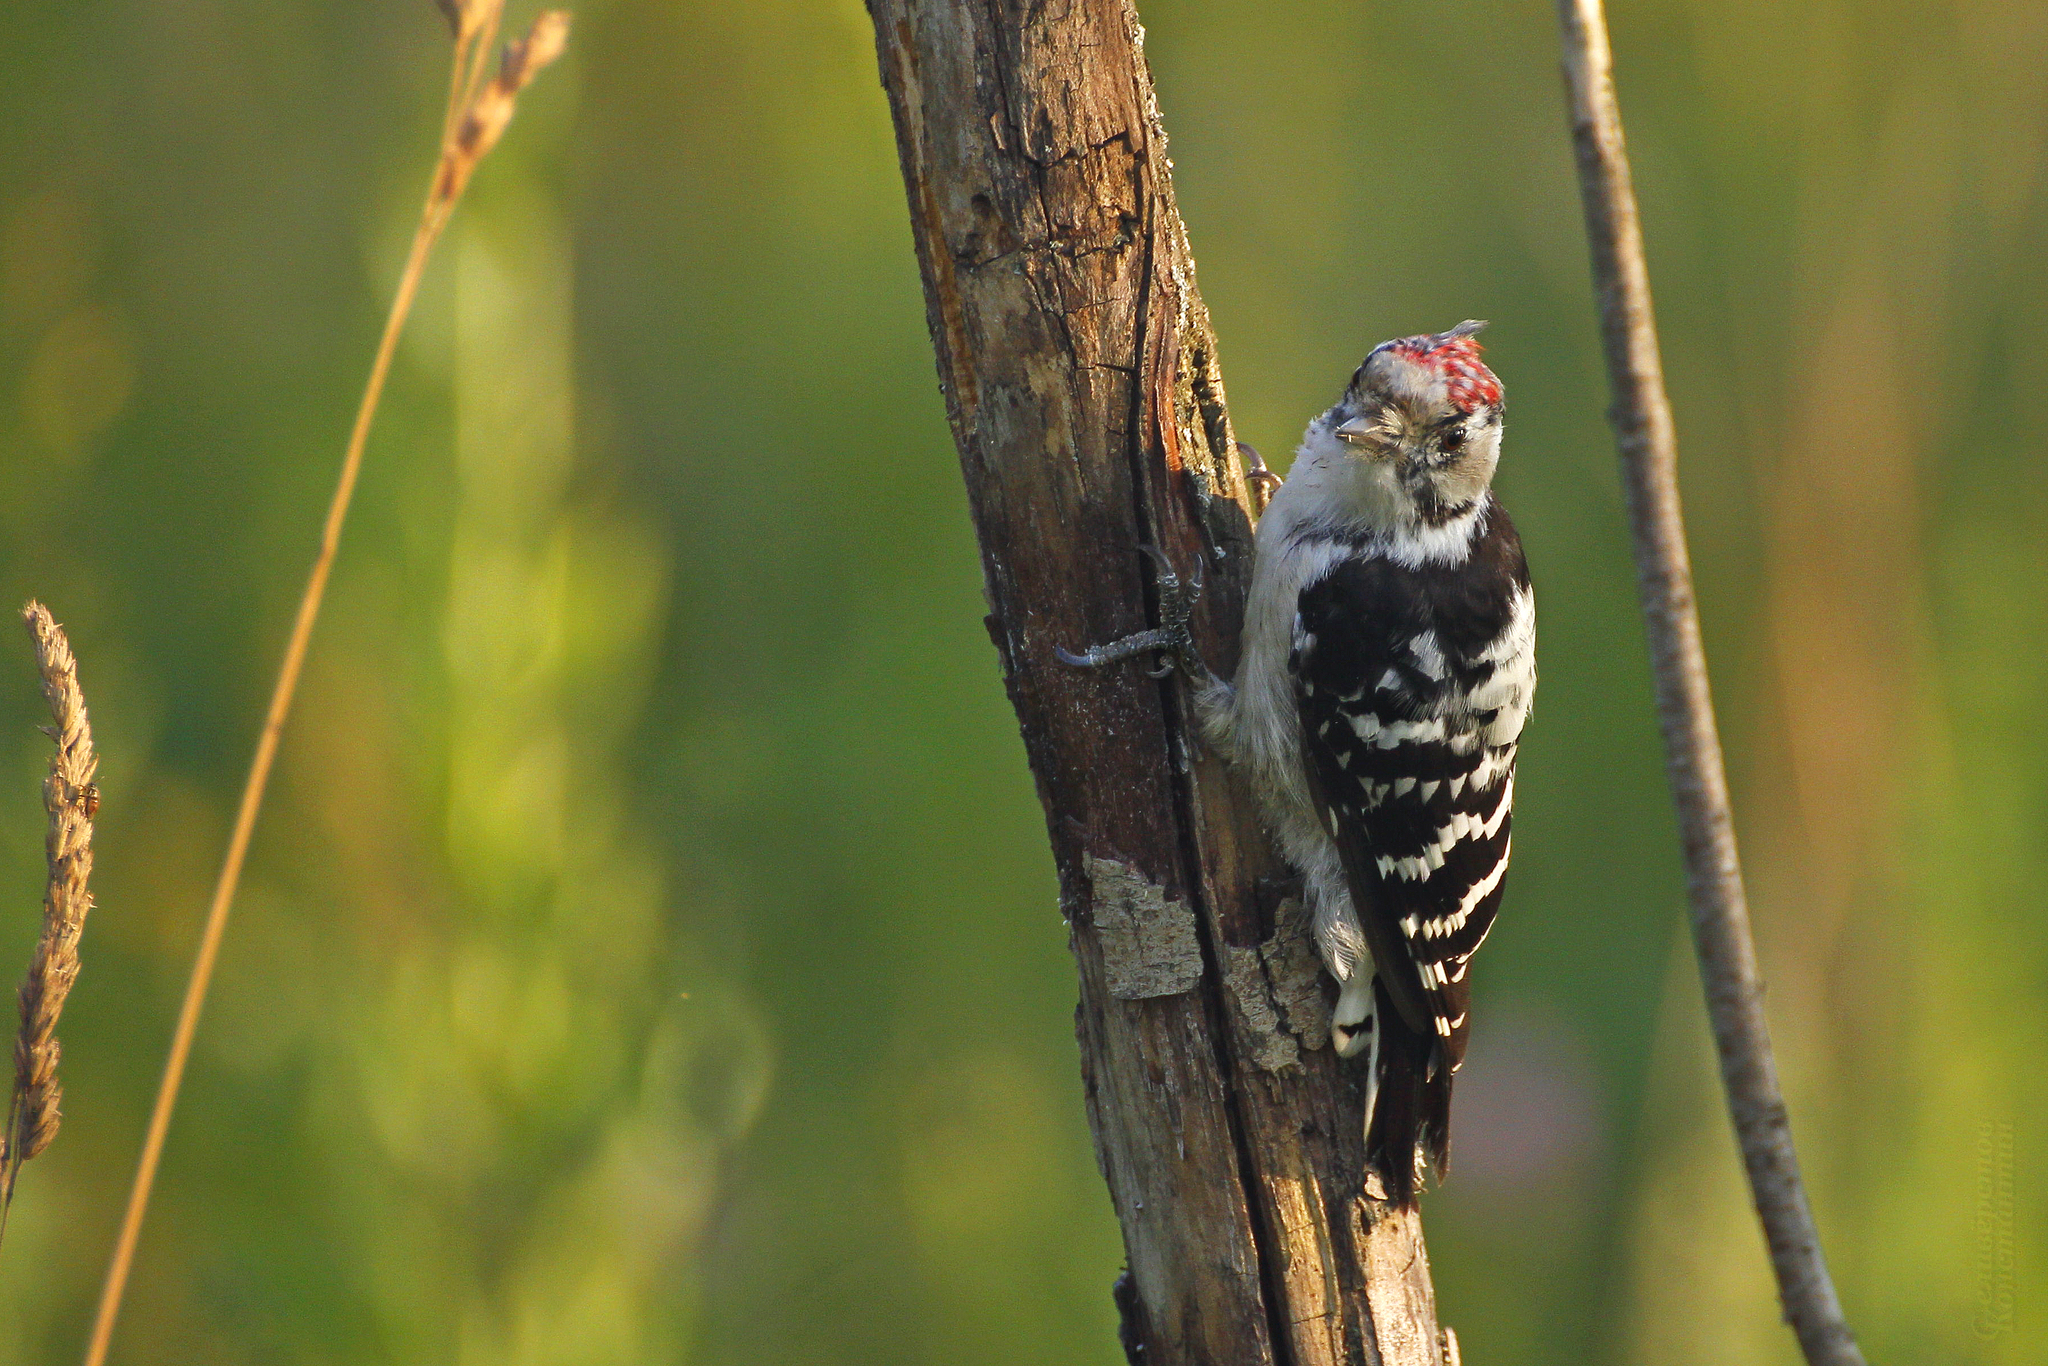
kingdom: Animalia
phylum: Chordata
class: Aves
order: Piciformes
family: Picidae
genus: Dryobates
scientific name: Dryobates minor
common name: Lesser spotted woodpecker
